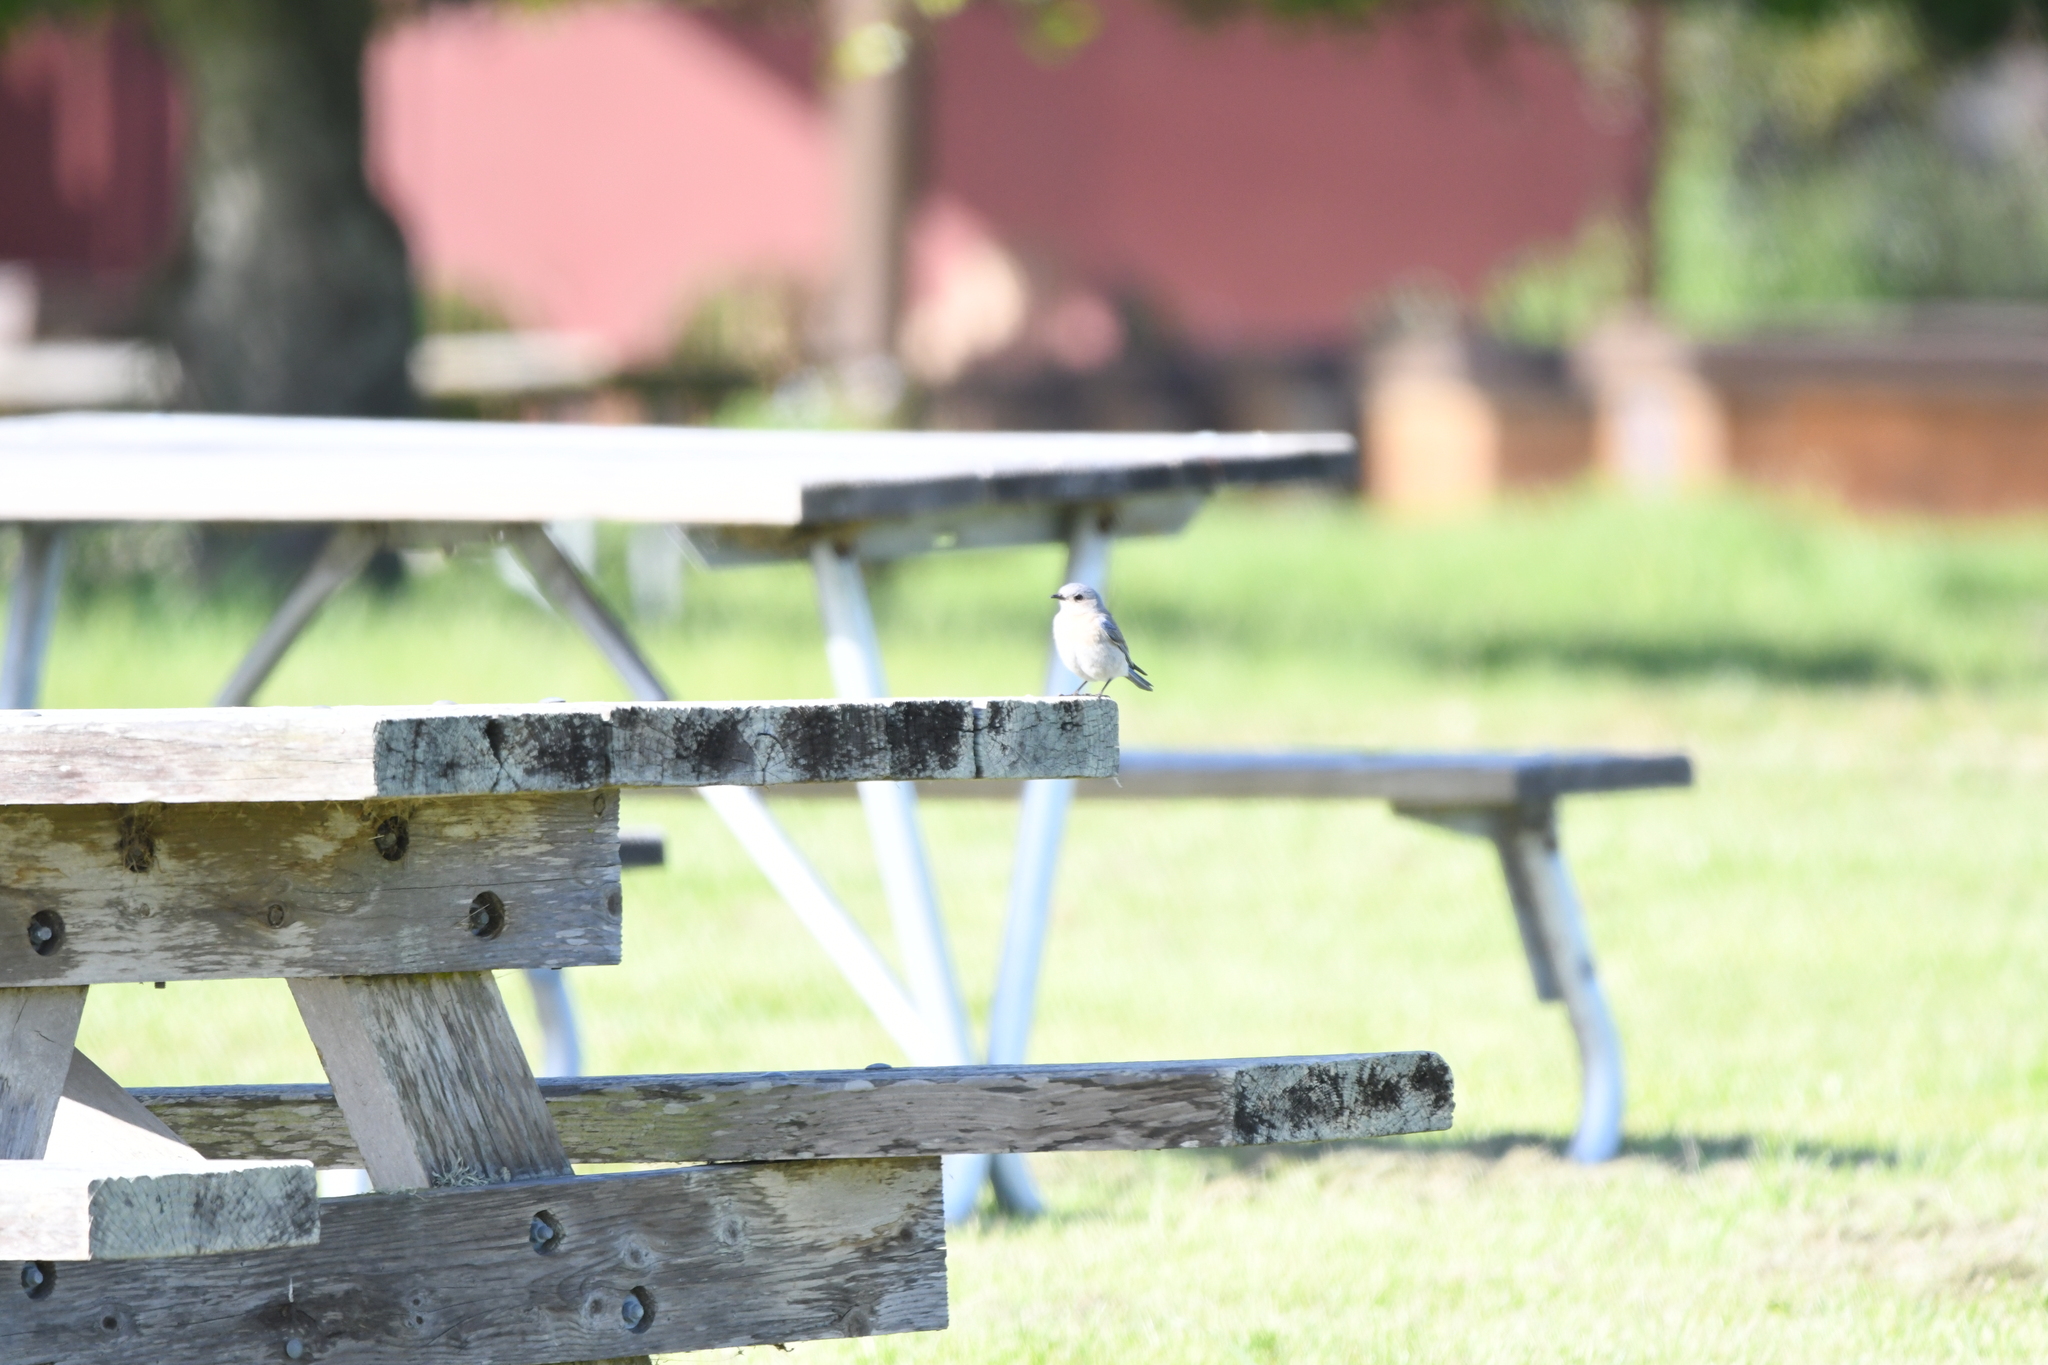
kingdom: Animalia
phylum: Chordata
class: Aves
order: Passeriformes
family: Turdidae
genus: Sialia
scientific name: Sialia mexicana
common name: Western bluebird
